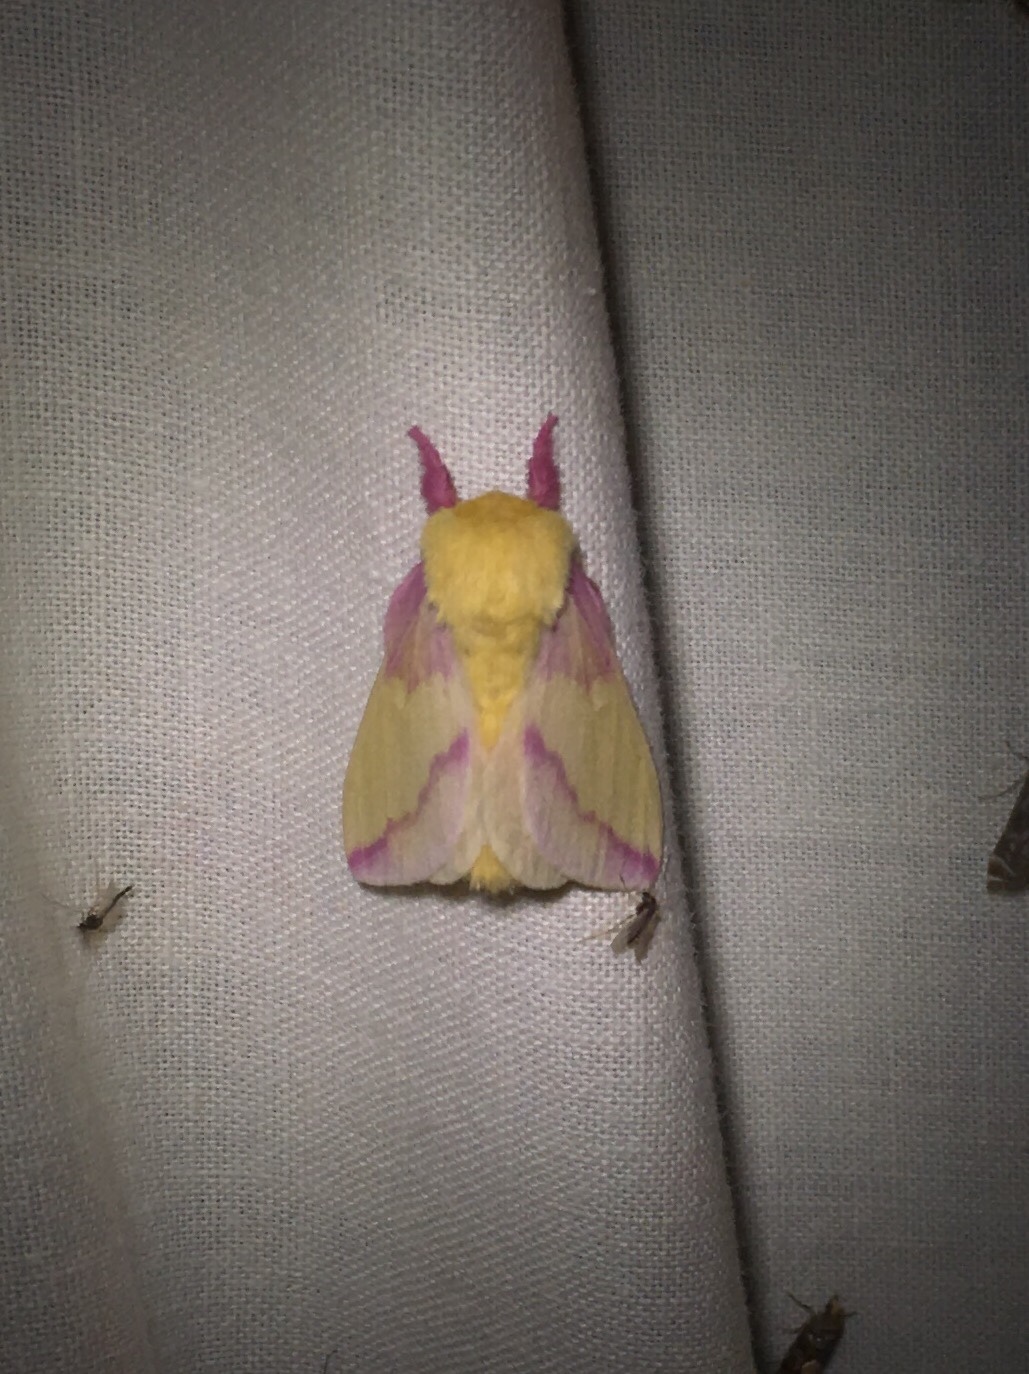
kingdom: Animalia
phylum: Arthropoda
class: Insecta
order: Lepidoptera
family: Saturniidae
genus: Dryocampa
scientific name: Dryocampa rubicunda
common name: Rosy maple moth
